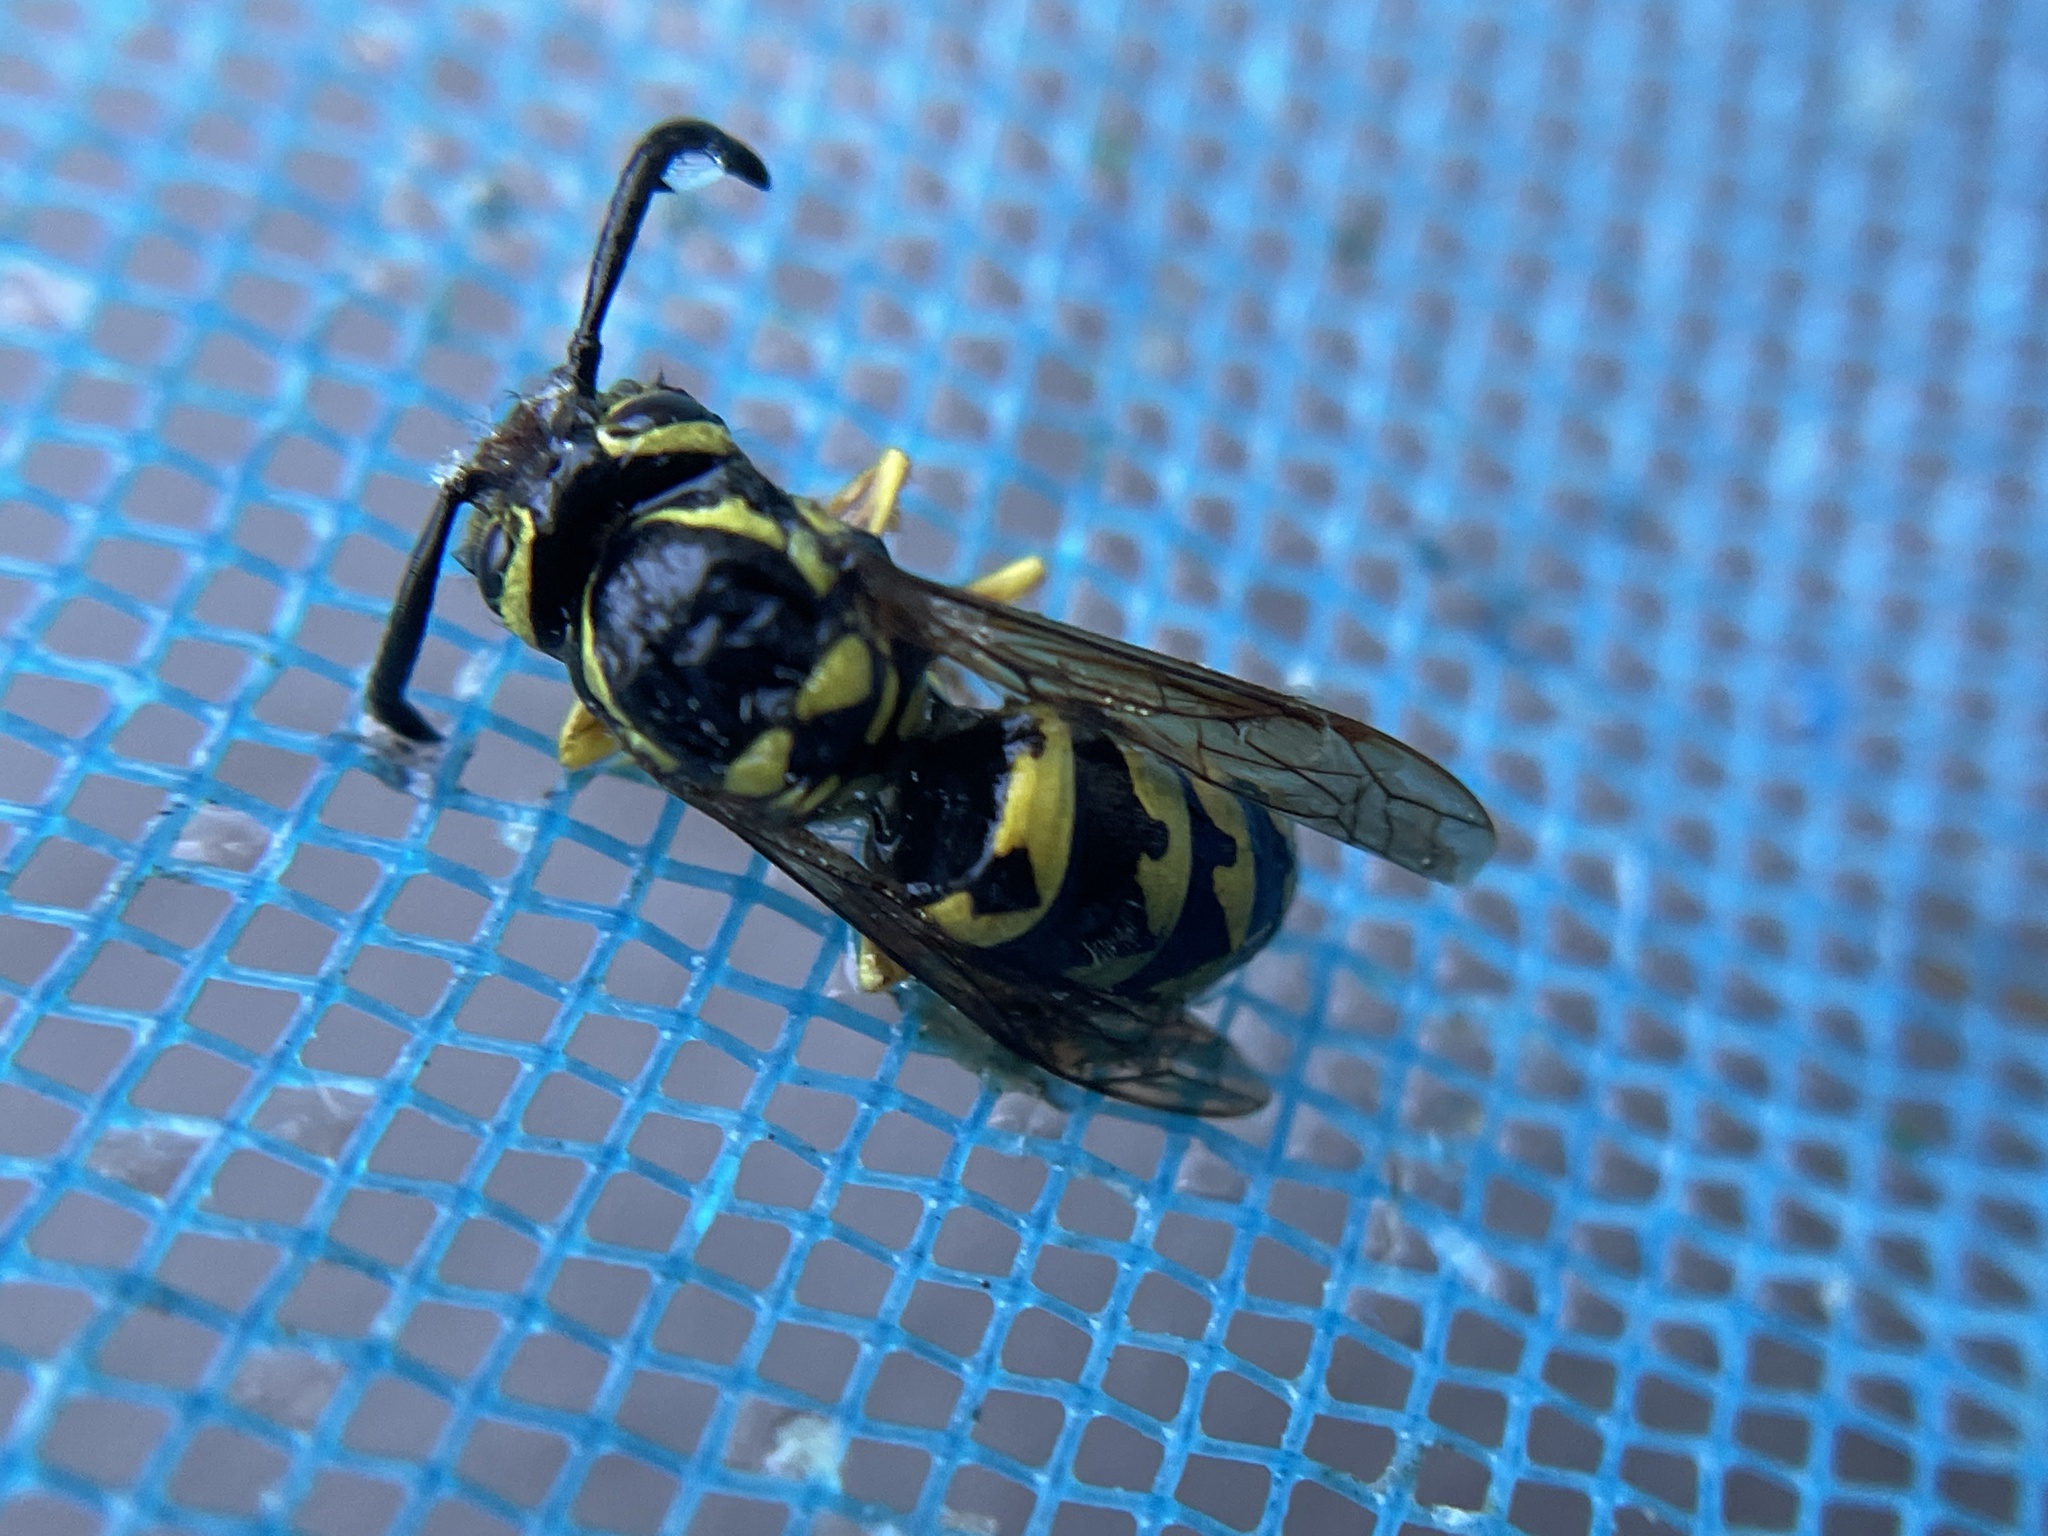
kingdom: Animalia
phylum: Arthropoda
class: Insecta
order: Hymenoptera
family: Vespidae
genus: Vespula
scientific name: Vespula pensylvanica
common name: Western yellowjacket
